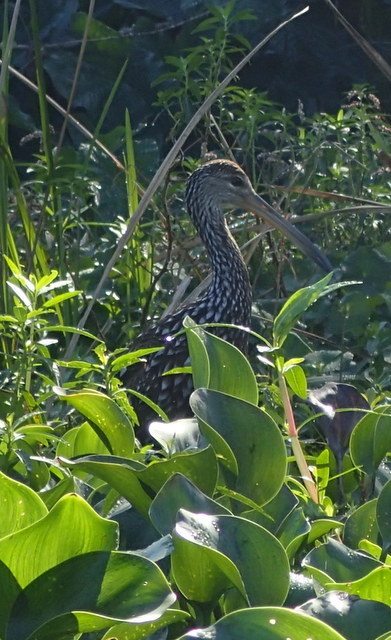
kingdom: Animalia
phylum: Chordata
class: Aves
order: Gruiformes
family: Aramidae
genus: Aramus
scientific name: Aramus guarauna
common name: Limpkin
